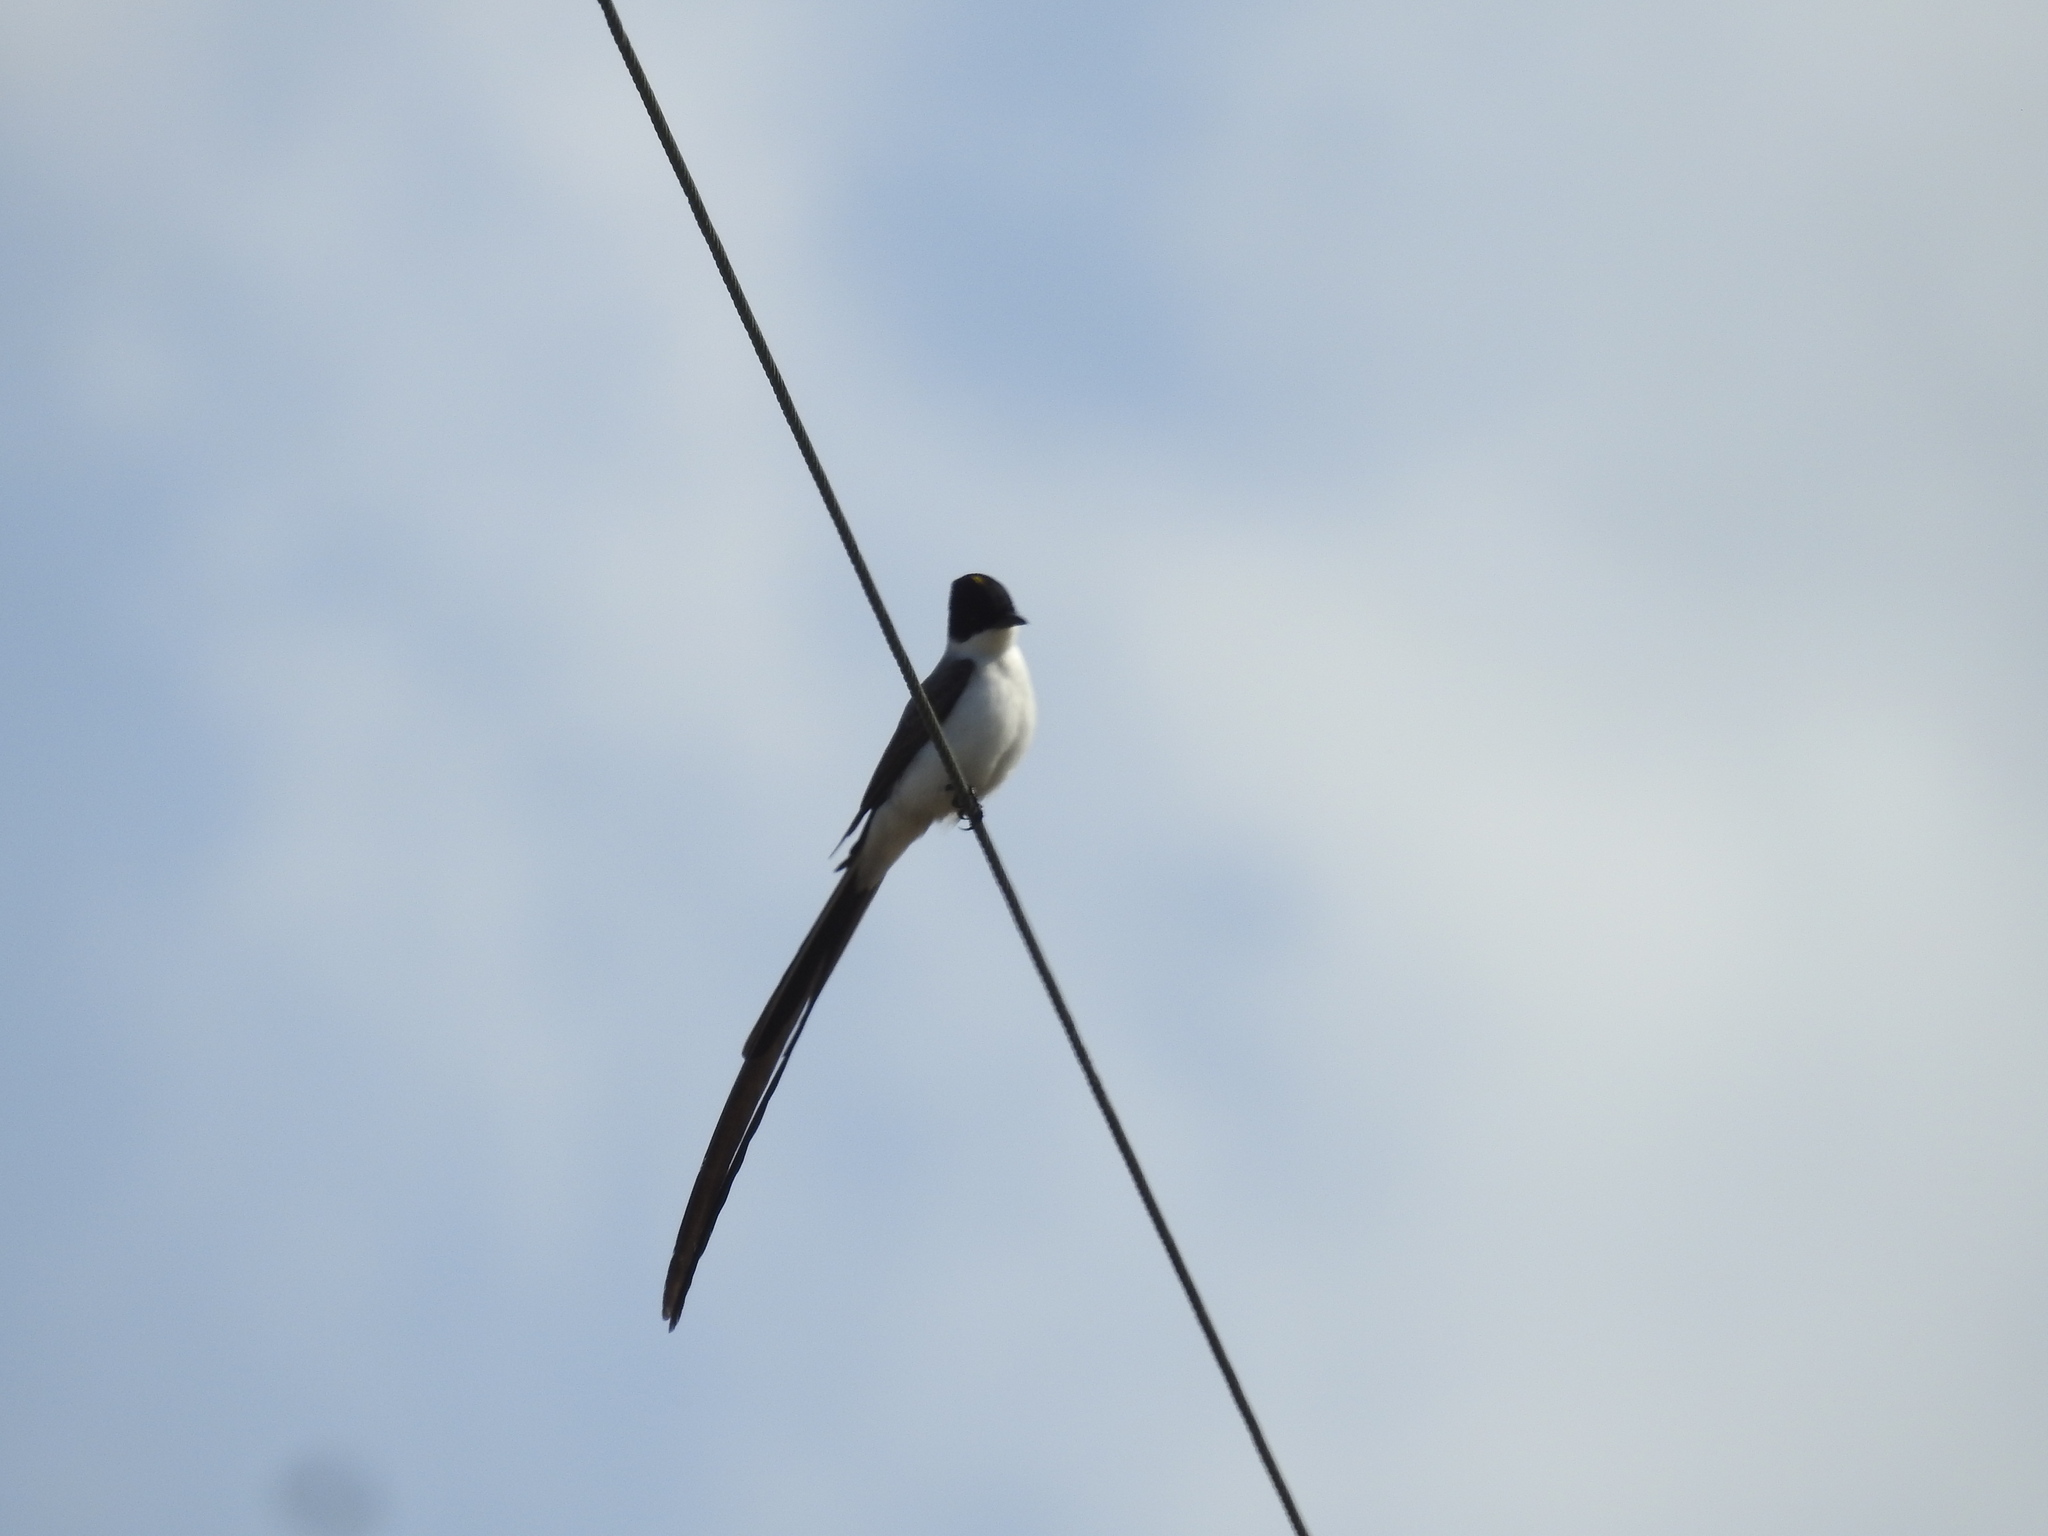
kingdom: Animalia
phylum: Chordata
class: Aves
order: Passeriformes
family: Tyrannidae
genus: Tyrannus
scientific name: Tyrannus savana
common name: Fork-tailed flycatcher
